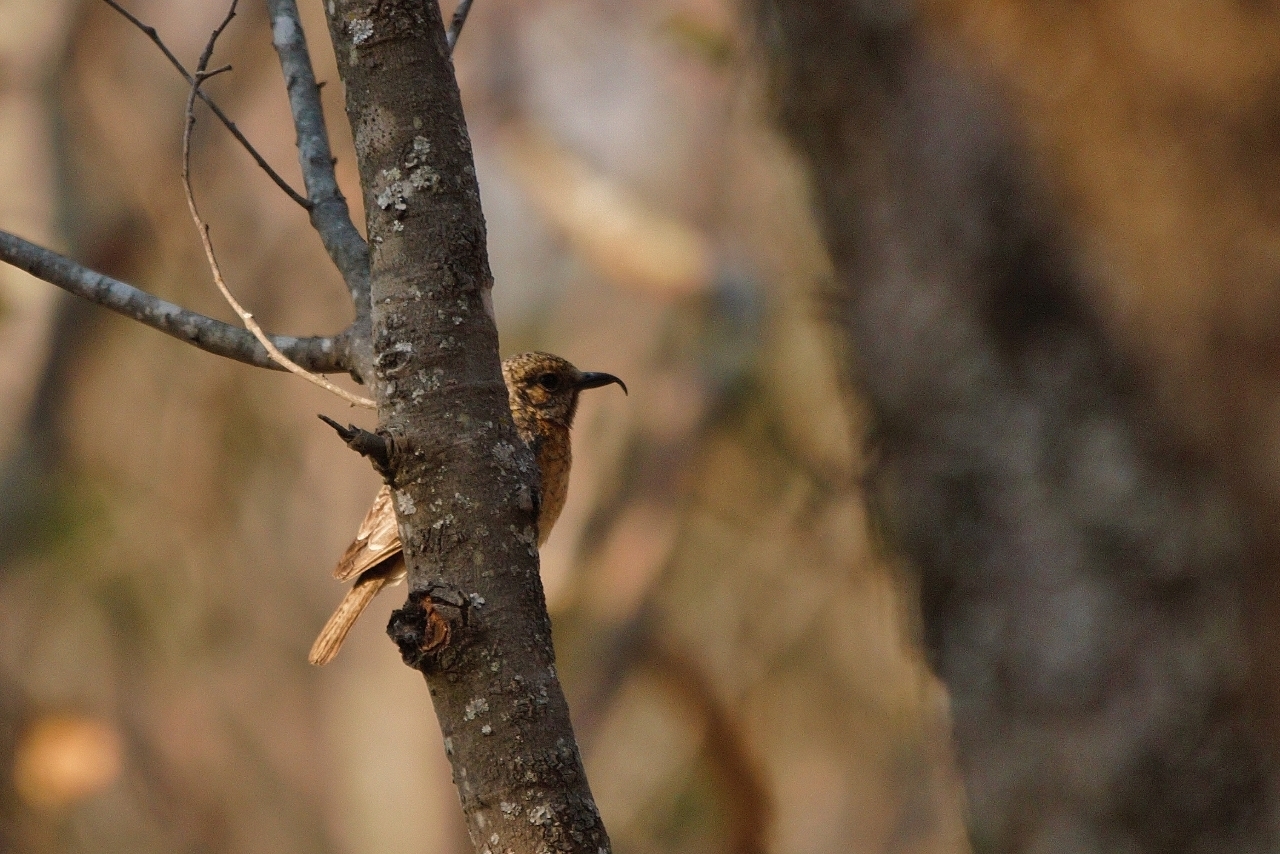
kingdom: Animalia
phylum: Chordata
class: Aves
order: Passeriformes
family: Muscicapidae
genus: Monticola
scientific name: Monticola angolensis
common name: Miombo rock thrush
